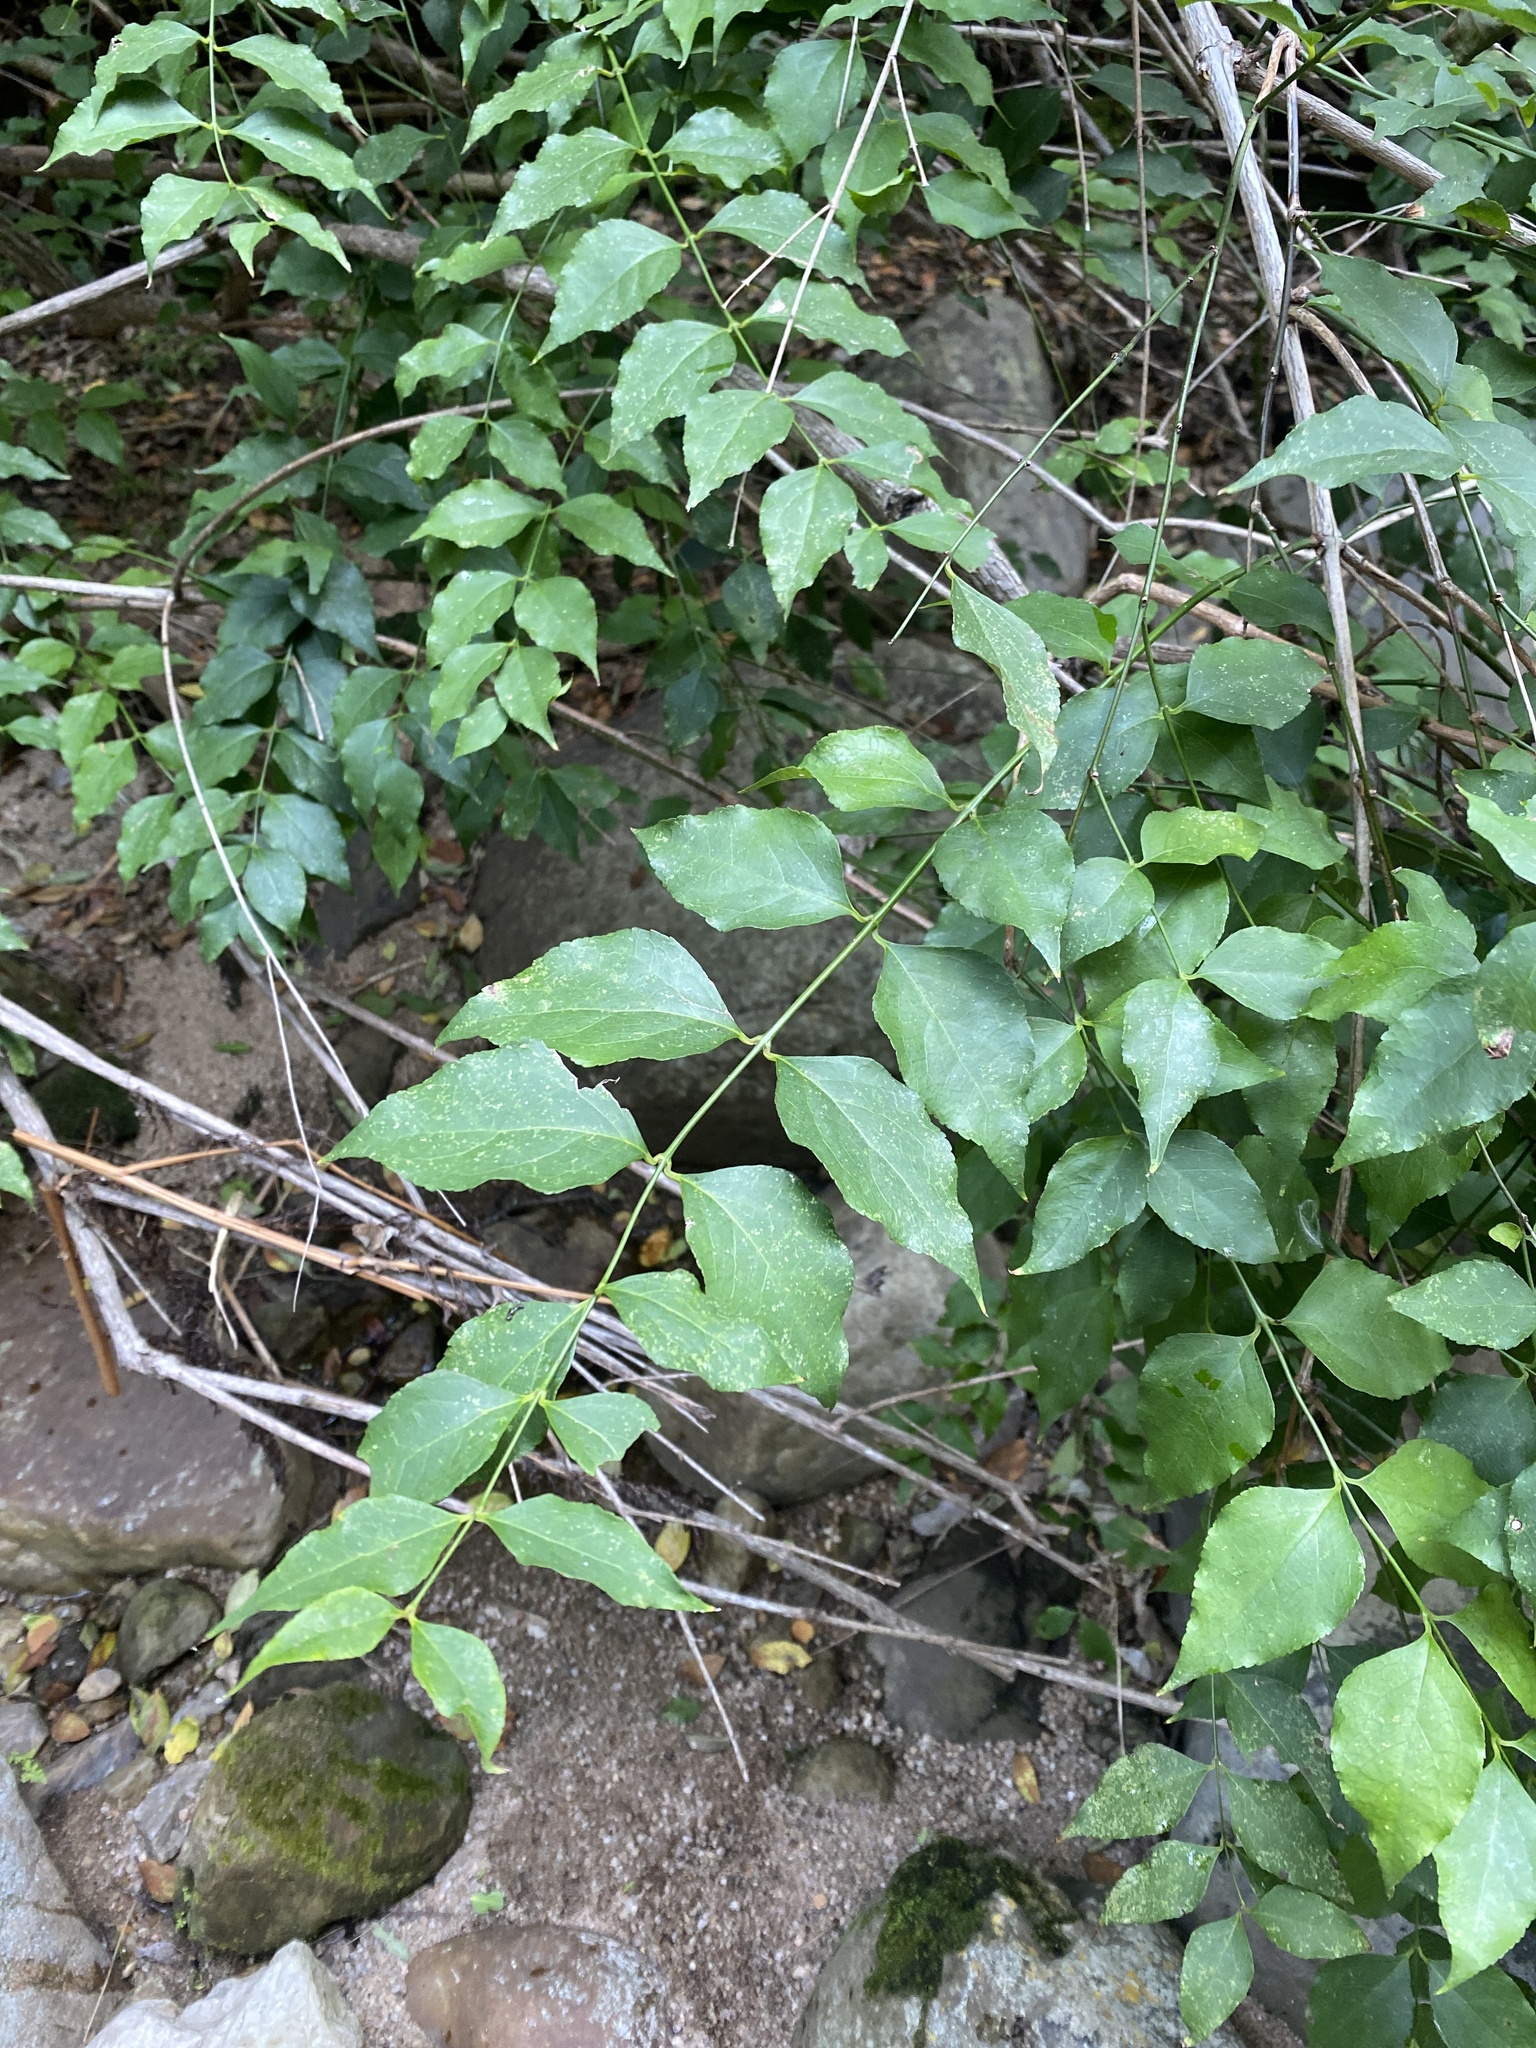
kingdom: Plantae
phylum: Tracheophyta
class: Magnoliopsida
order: Lamiales
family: Stilbaceae
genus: Halleria
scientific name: Halleria lucida
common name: Tree fuschia
